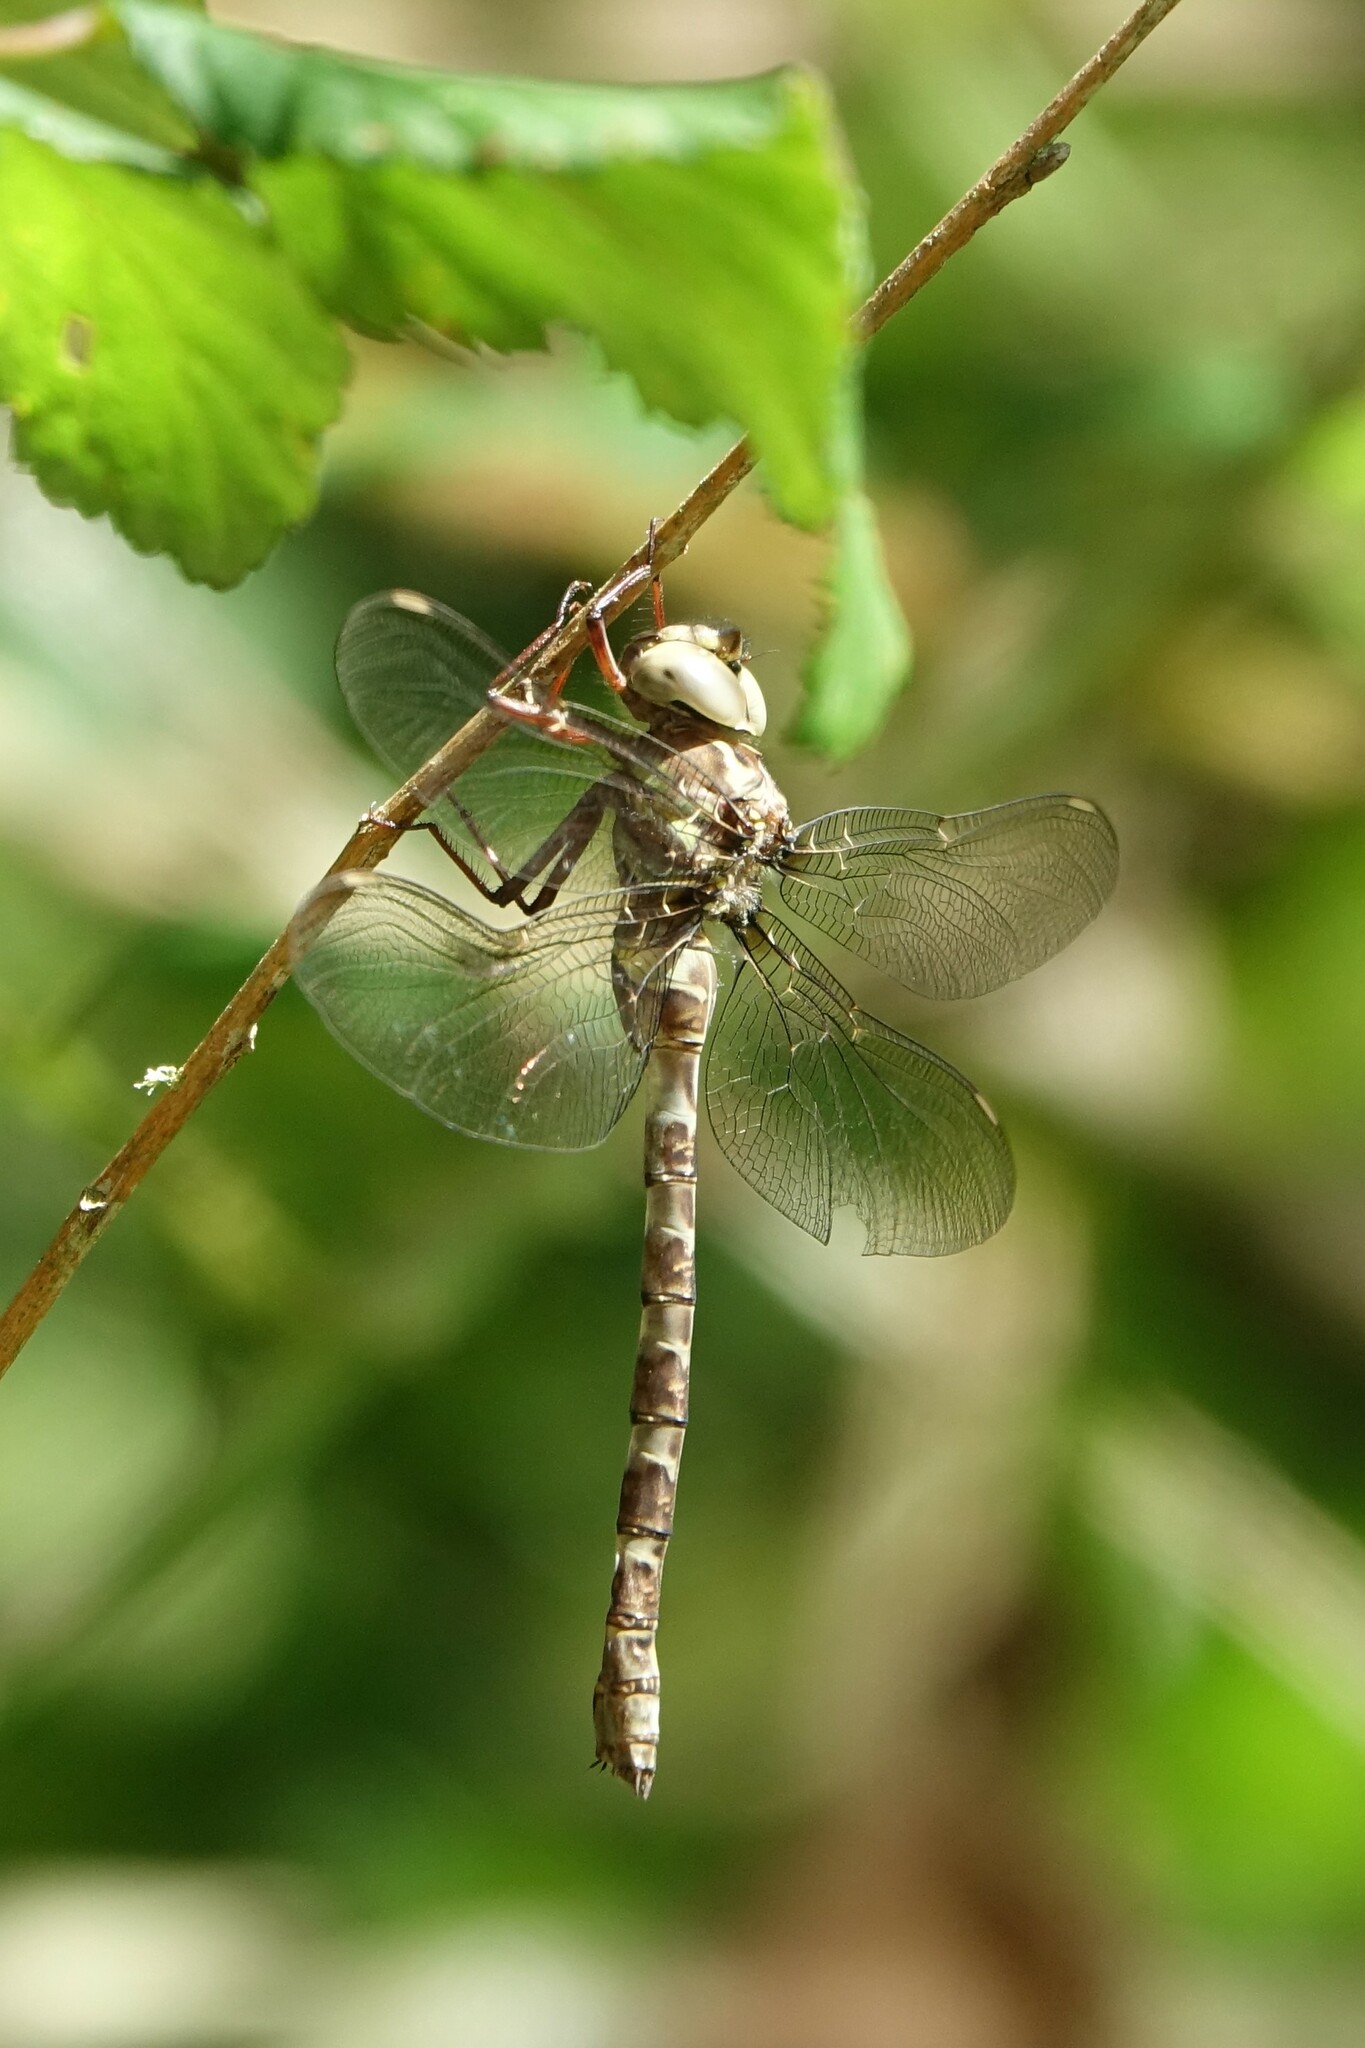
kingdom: Animalia
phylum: Arthropoda
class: Insecta
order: Odonata
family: Aeshnidae
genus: Boyeria
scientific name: Boyeria irene
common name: Western spectre
